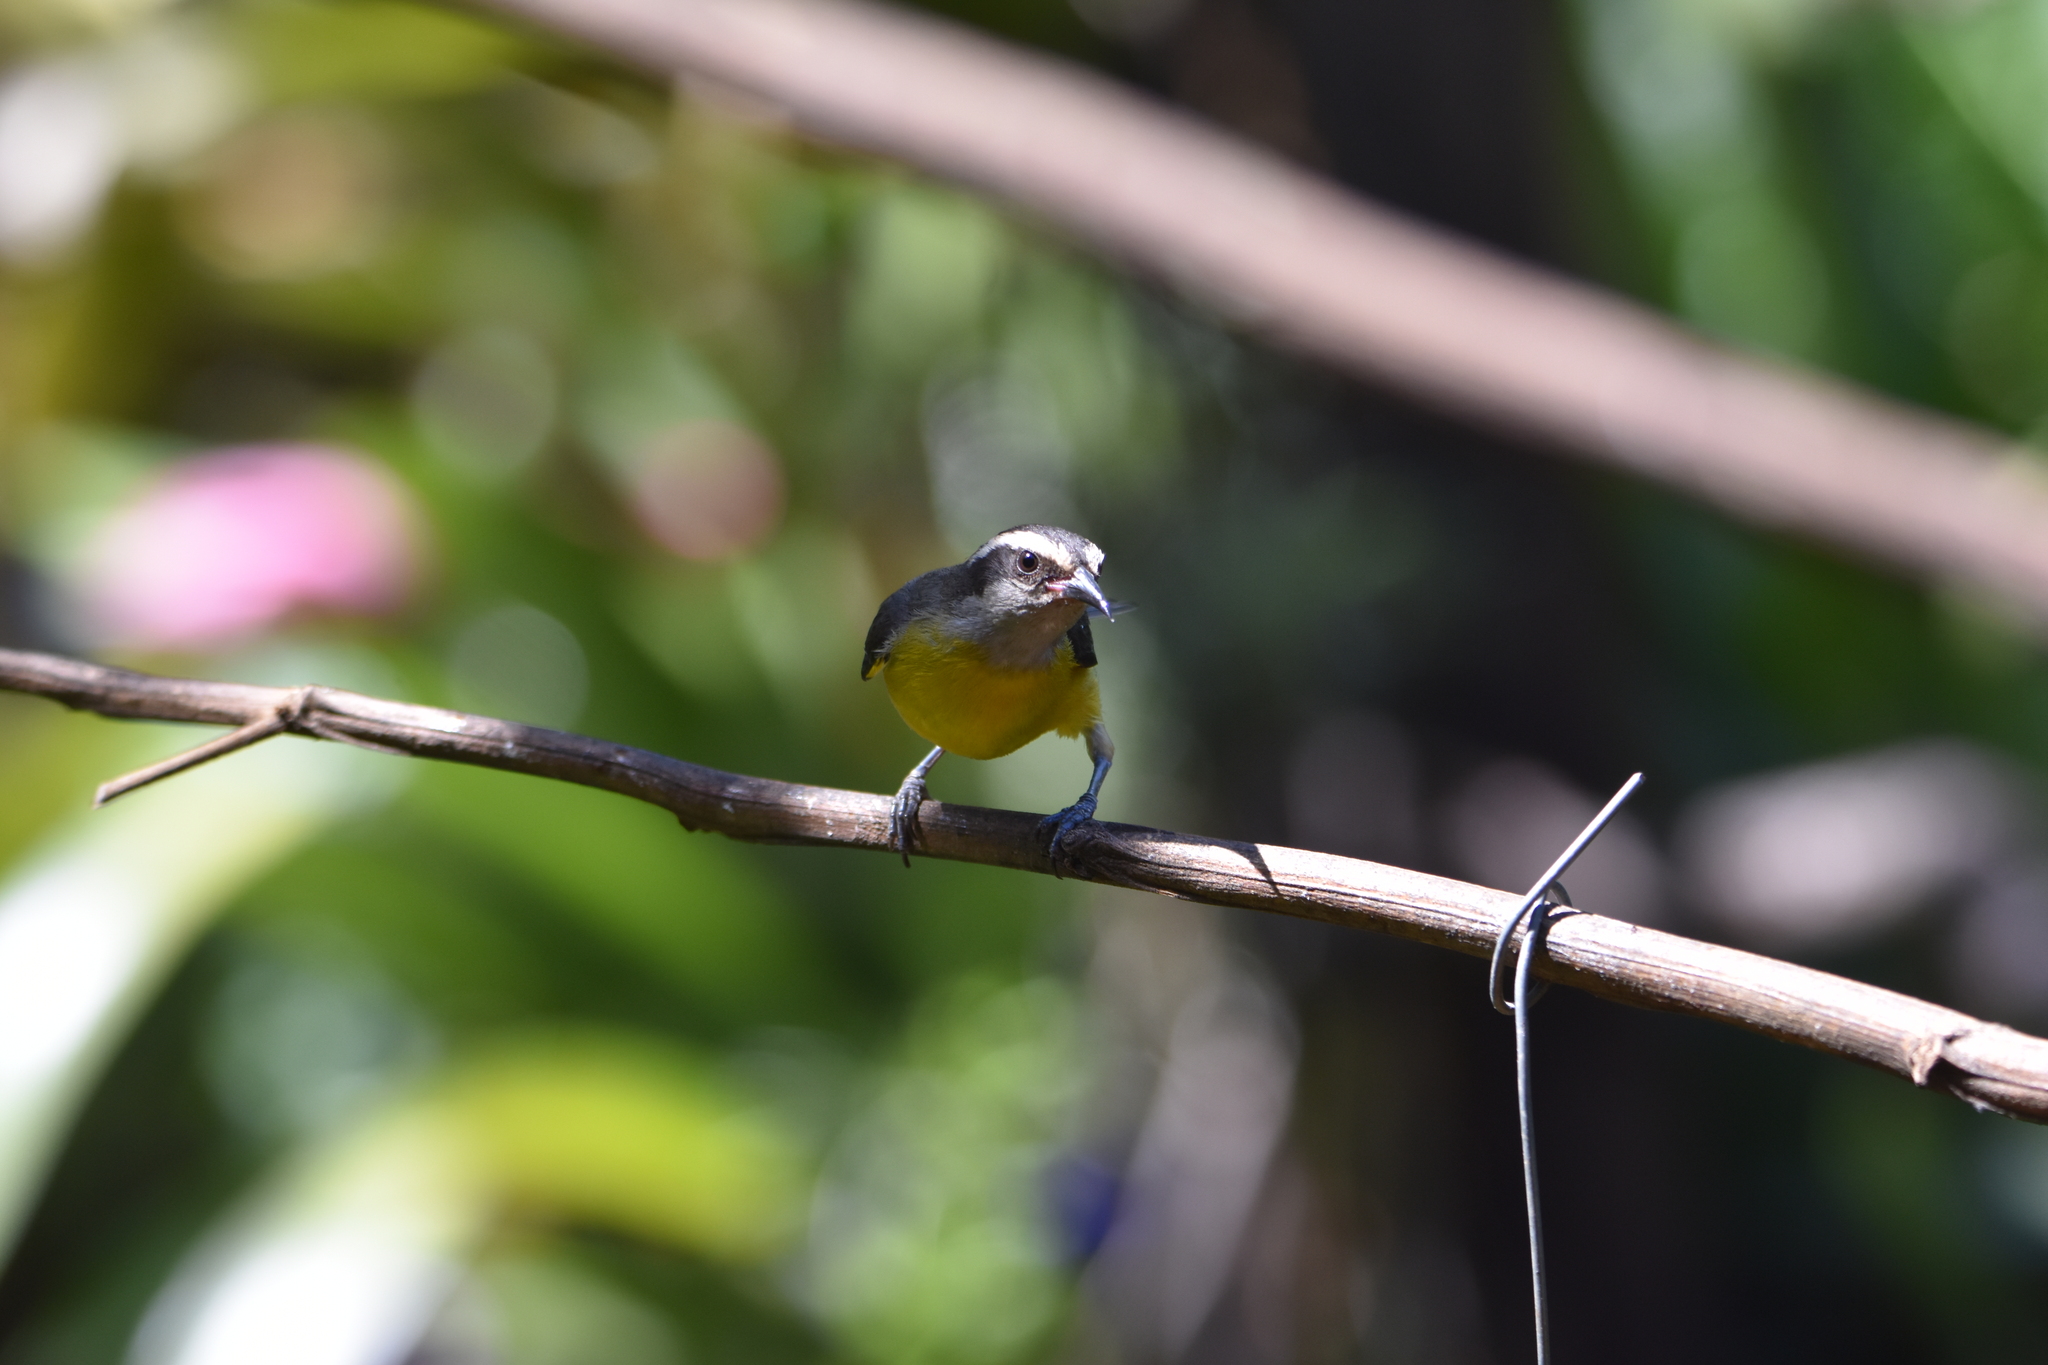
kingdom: Animalia
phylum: Chordata
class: Aves
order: Passeriformes
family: Thraupidae
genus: Coereba
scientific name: Coereba flaveola
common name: Bananaquit
